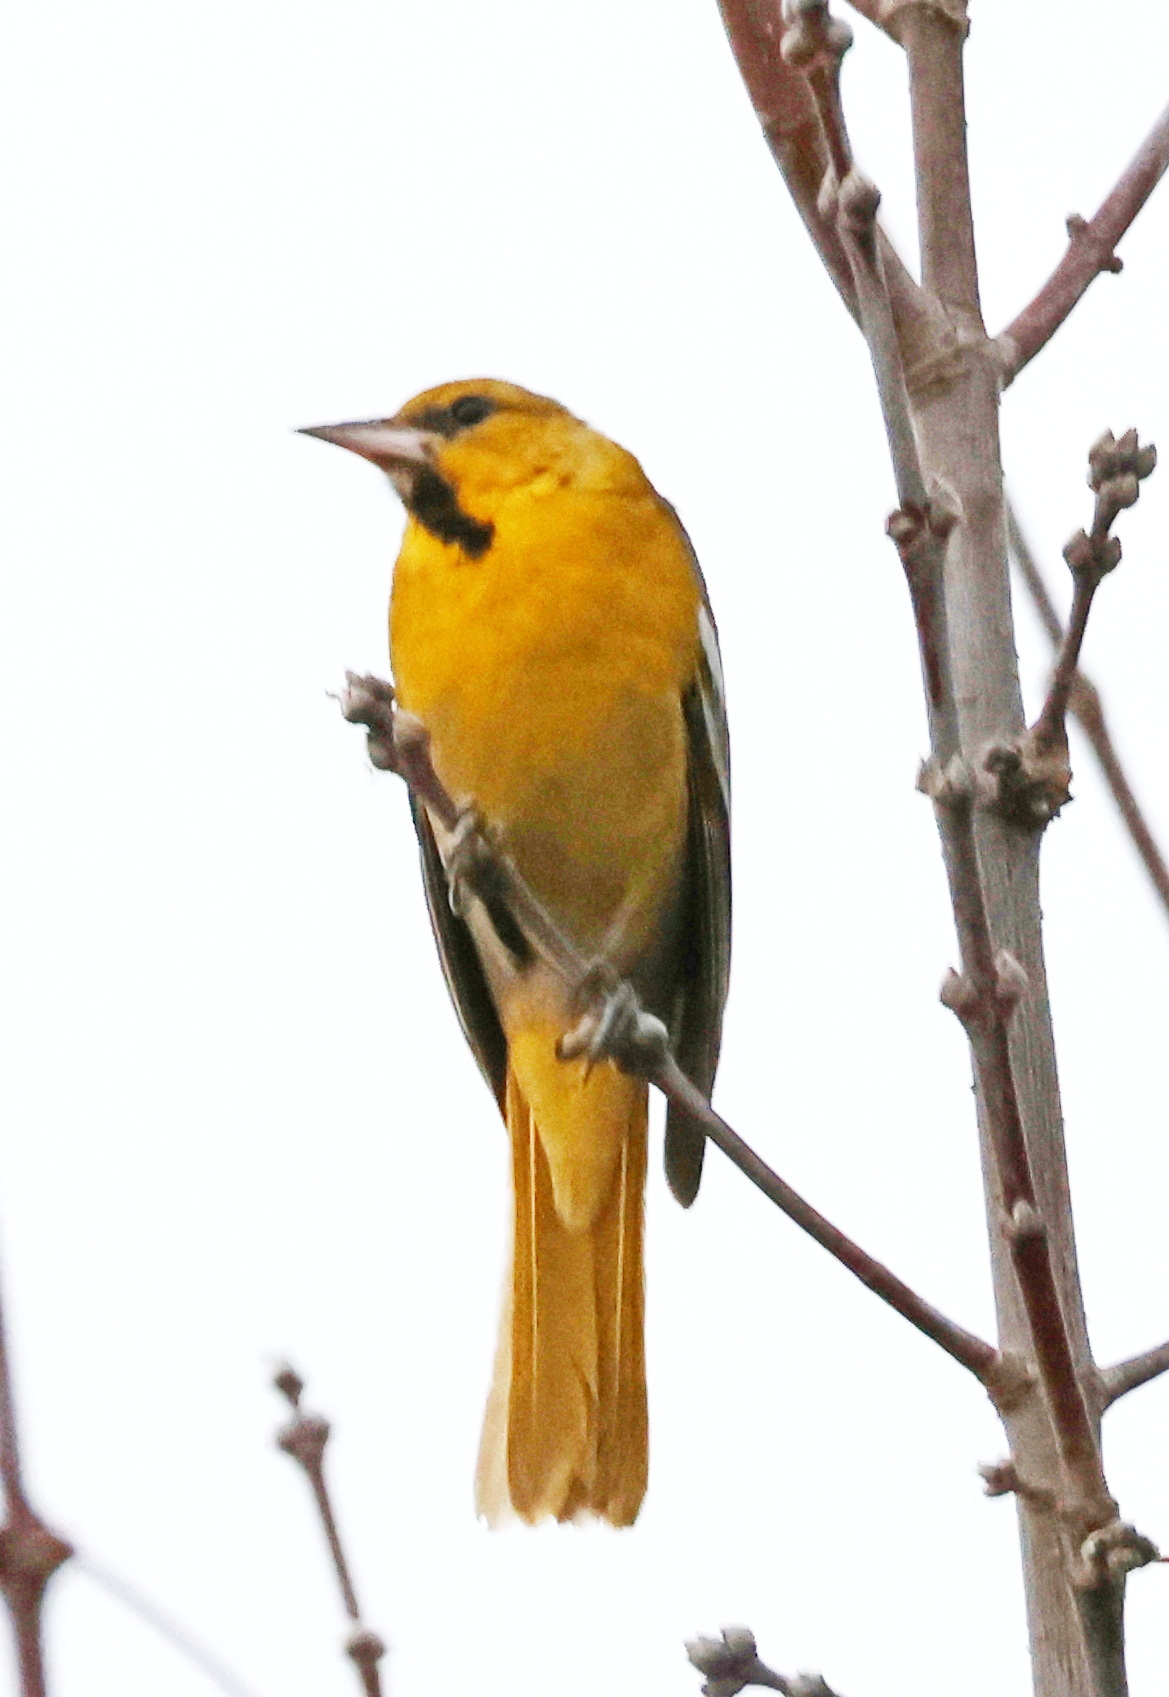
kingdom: Animalia
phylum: Chordata
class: Aves
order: Passeriformes
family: Icteridae
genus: Icterus
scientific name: Icterus bullockii
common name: Bullock's oriole
